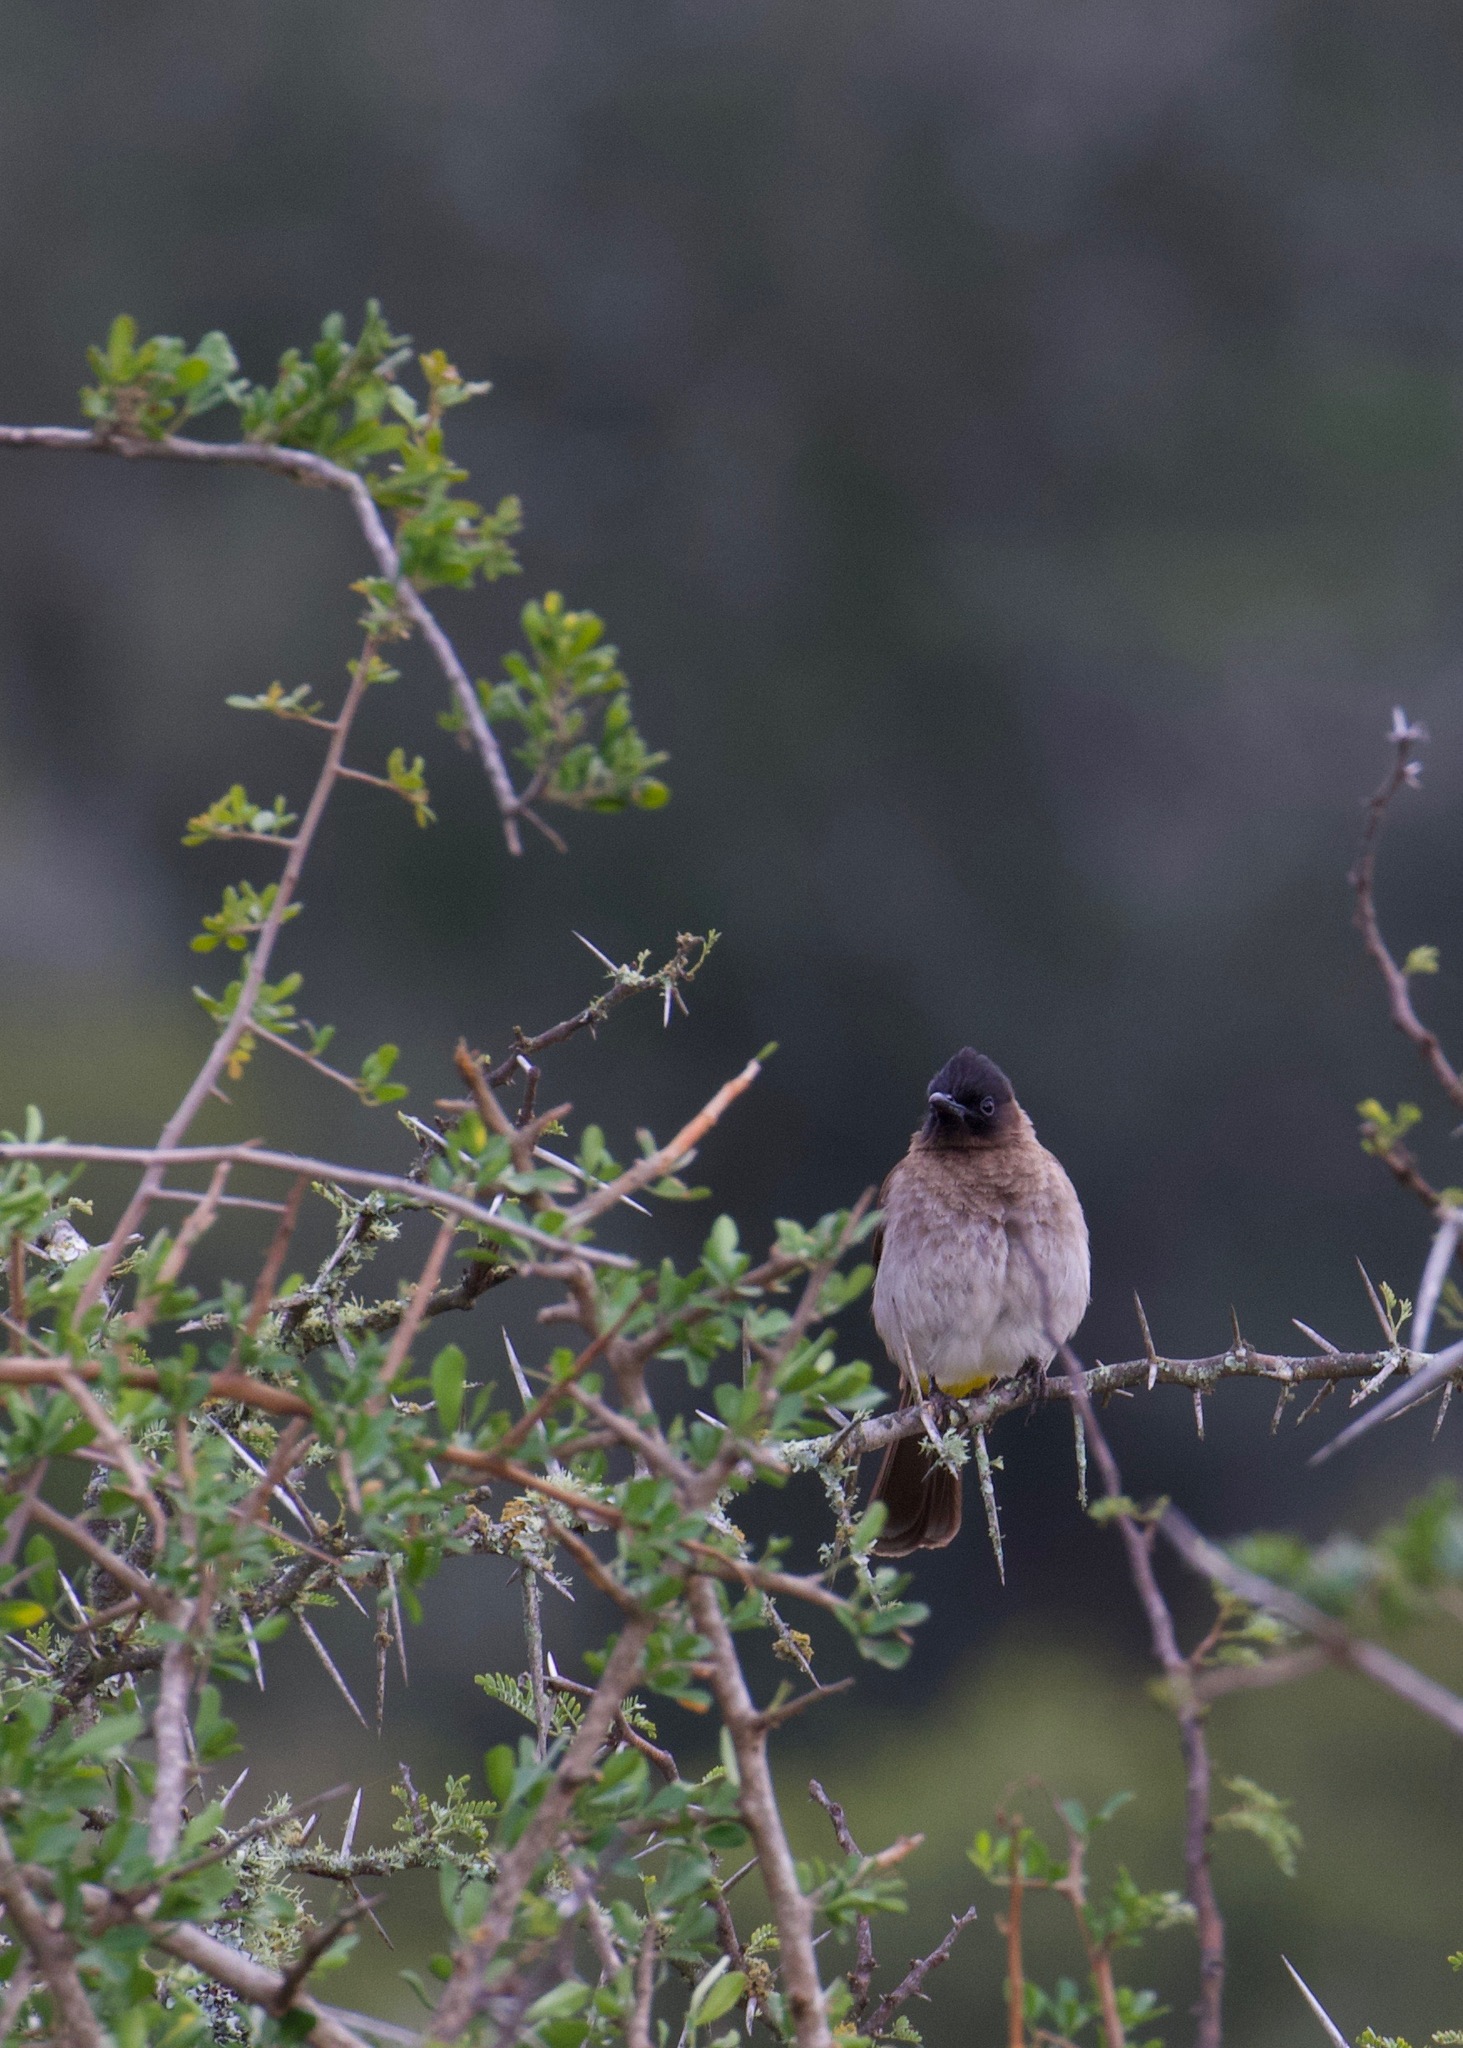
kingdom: Animalia
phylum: Chordata
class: Aves
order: Passeriformes
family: Pycnonotidae
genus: Pycnonotus
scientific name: Pycnonotus barbatus
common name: Common bulbul
